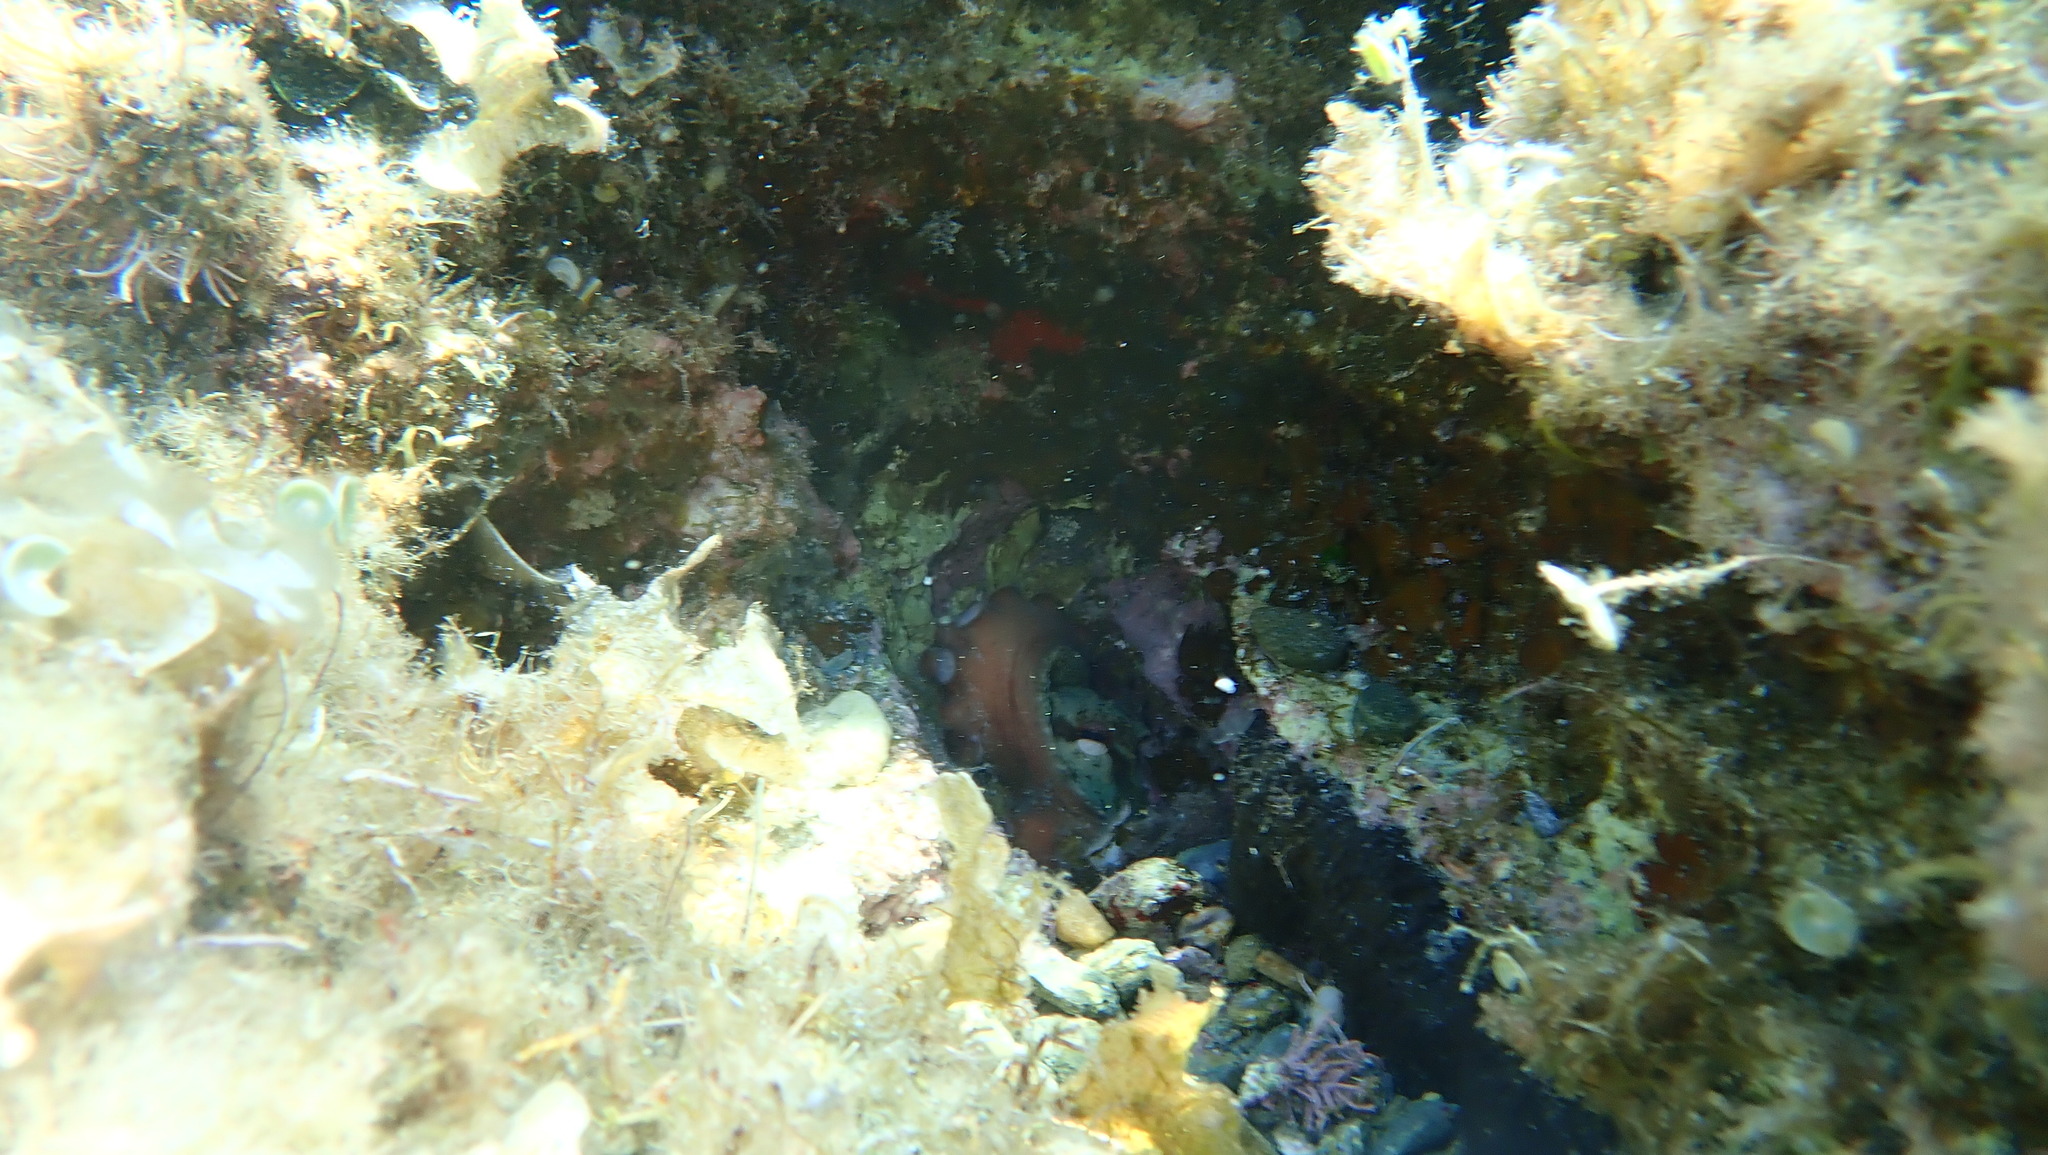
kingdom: Animalia
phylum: Mollusca
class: Cephalopoda
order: Octopoda
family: Octopodidae
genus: Octopus
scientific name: Octopus vulgaris
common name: Common octopus
